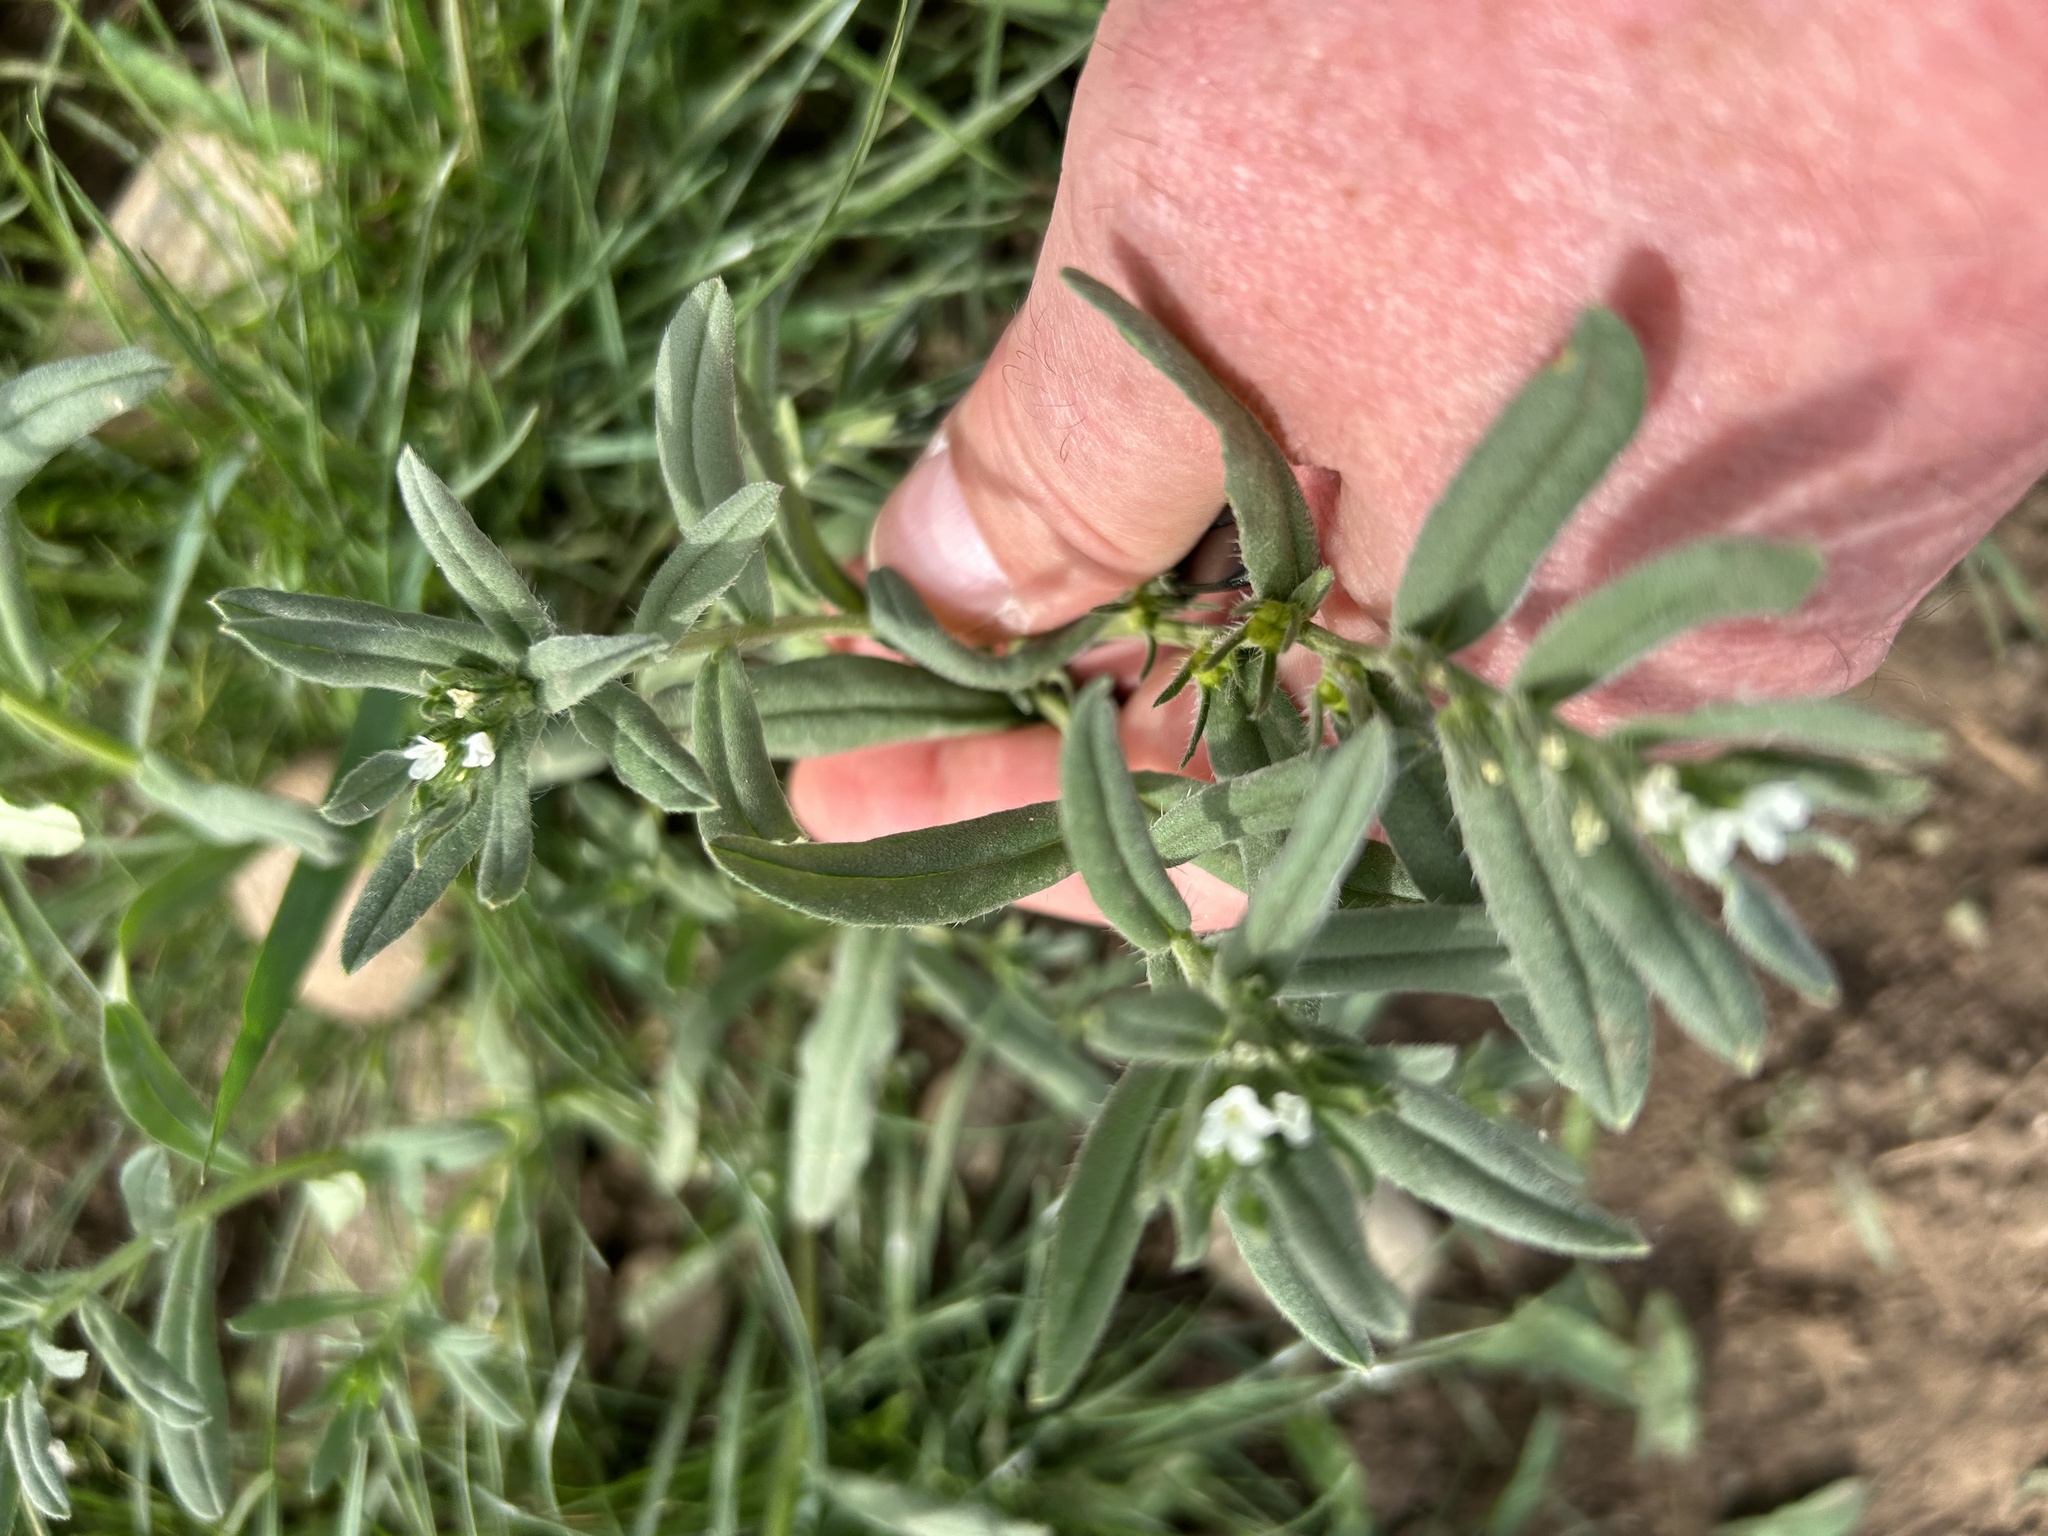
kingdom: Plantae
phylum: Tracheophyta
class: Magnoliopsida
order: Boraginales
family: Boraginaceae
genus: Buglossoides
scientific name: Buglossoides arvensis
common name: Corn gromwell
